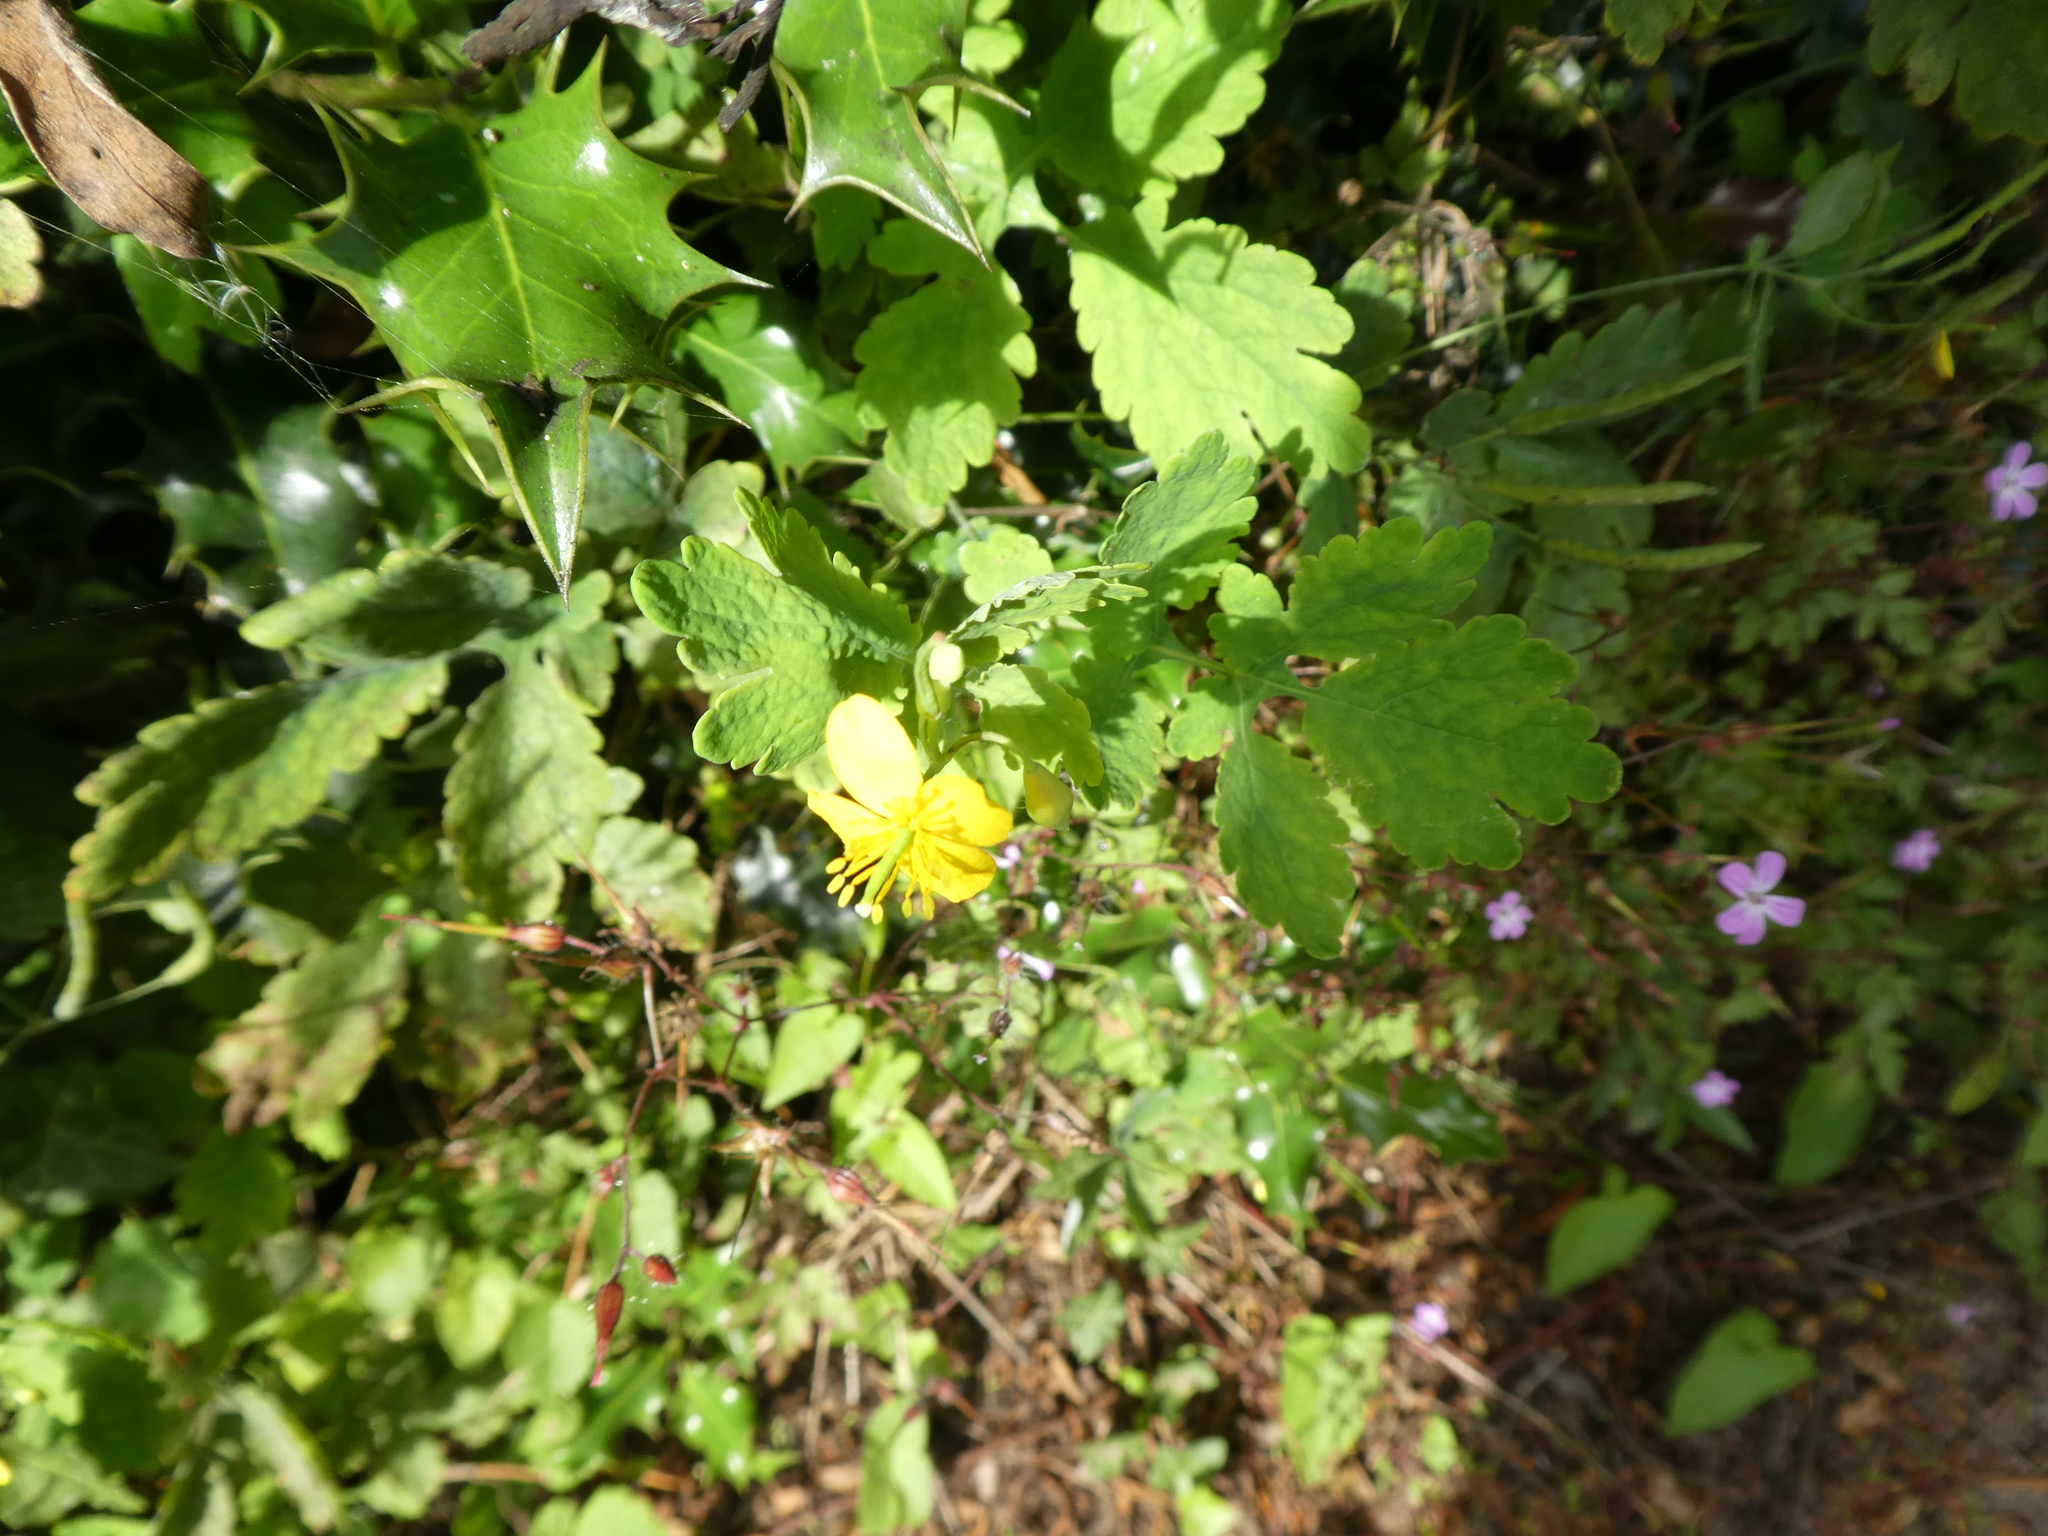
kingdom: Plantae
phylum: Tracheophyta
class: Magnoliopsida
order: Ranunculales
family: Papaveraceae
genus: Chelidonium
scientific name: Chelidonium majus
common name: Greater celandine
